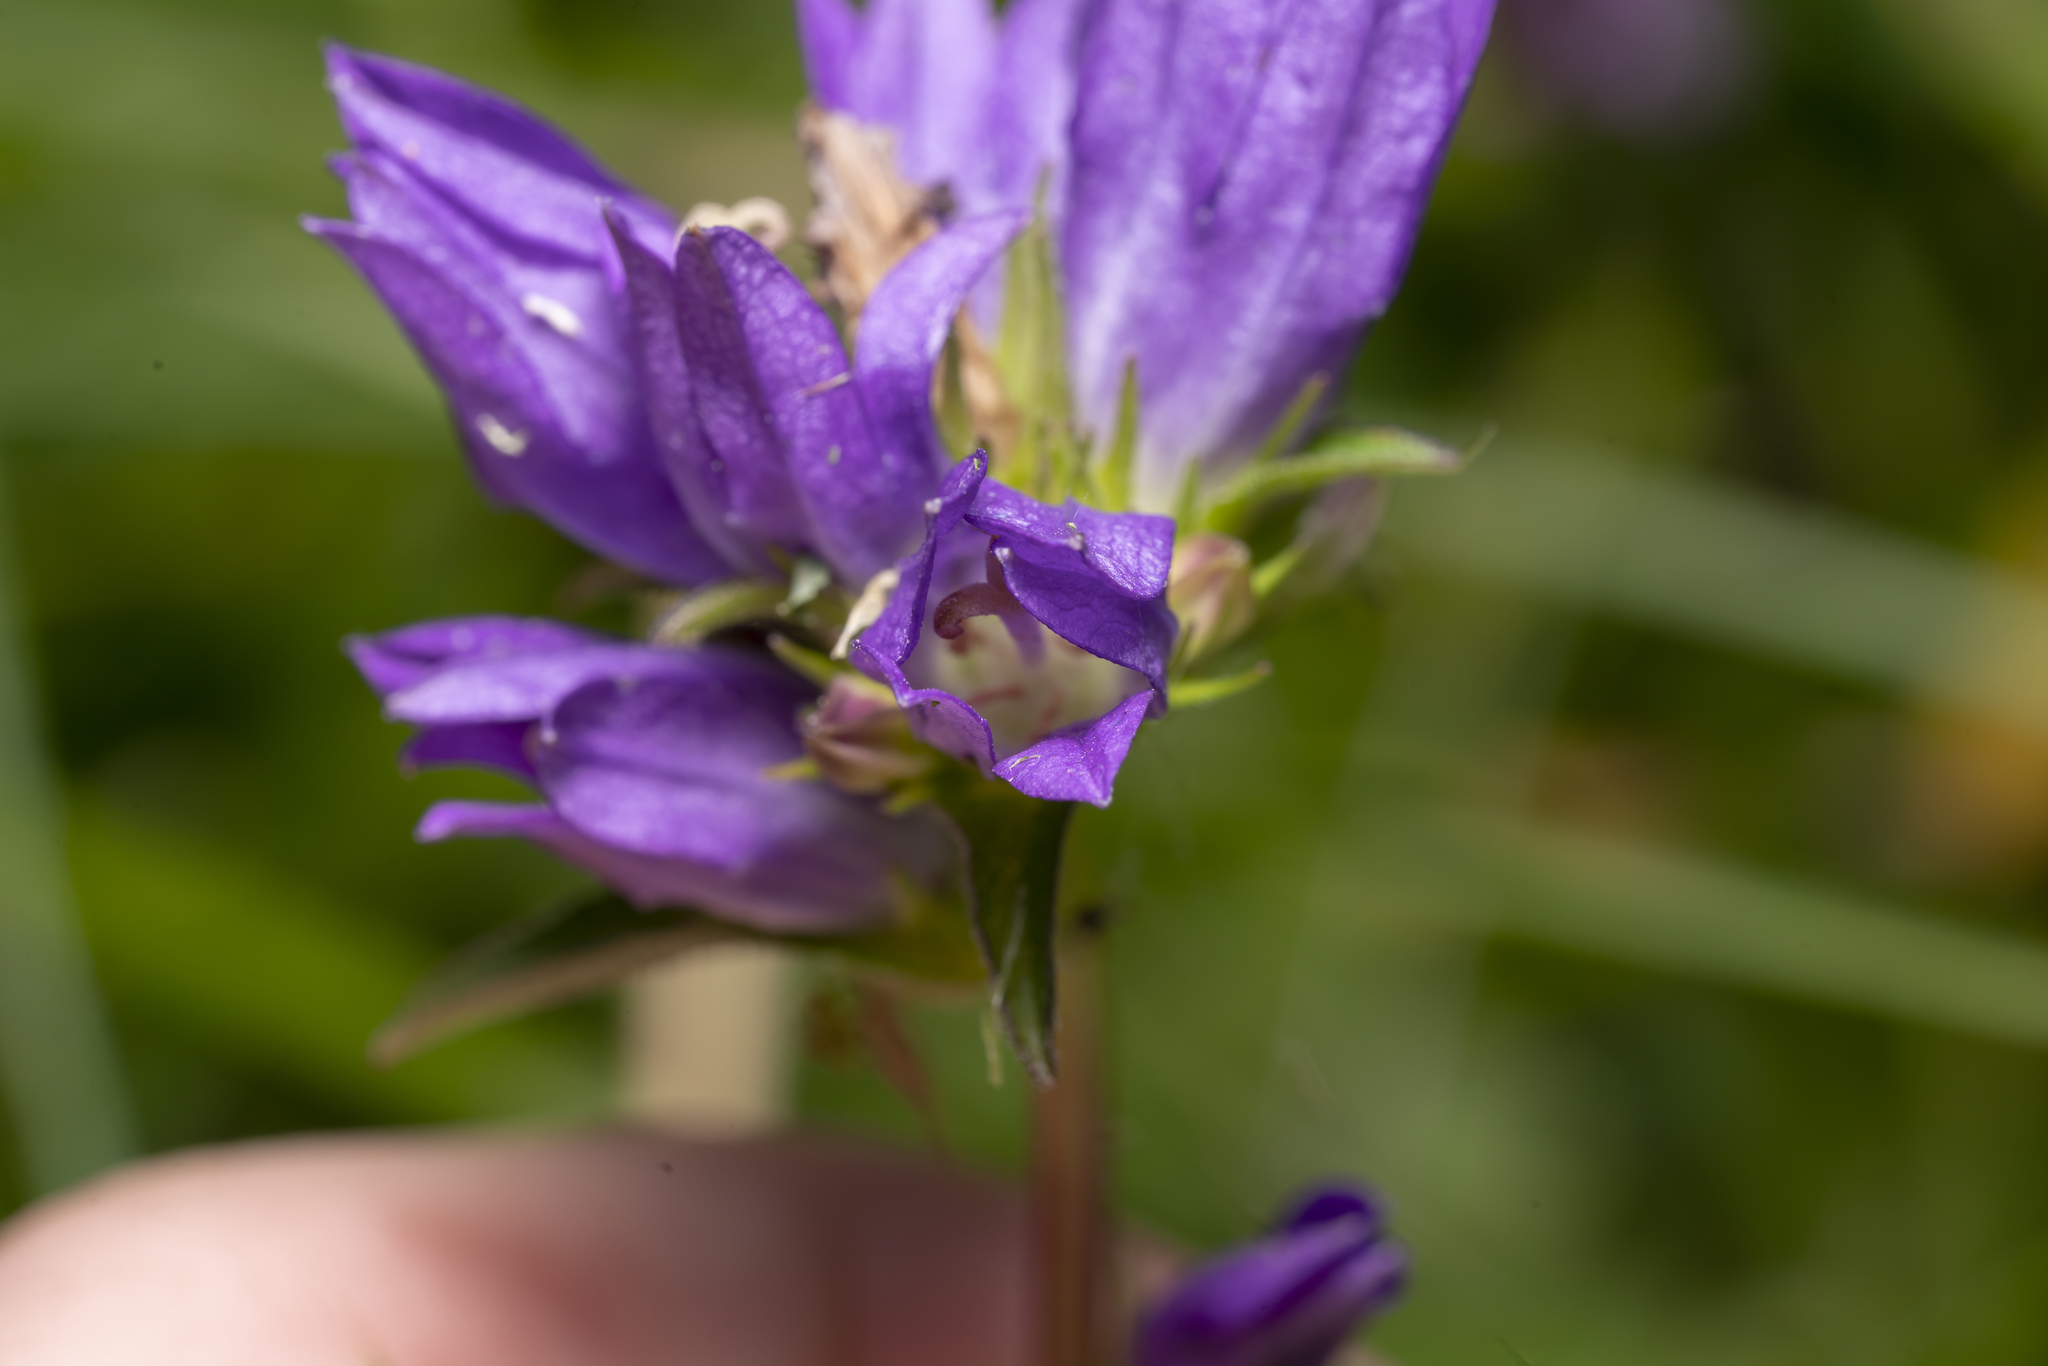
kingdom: Plantae
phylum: Tracheophyta
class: Magnoliopsida
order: Asterales
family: Campanulaceae
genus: Campanula
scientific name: Campanula glomerata
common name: Clustered bellflower
